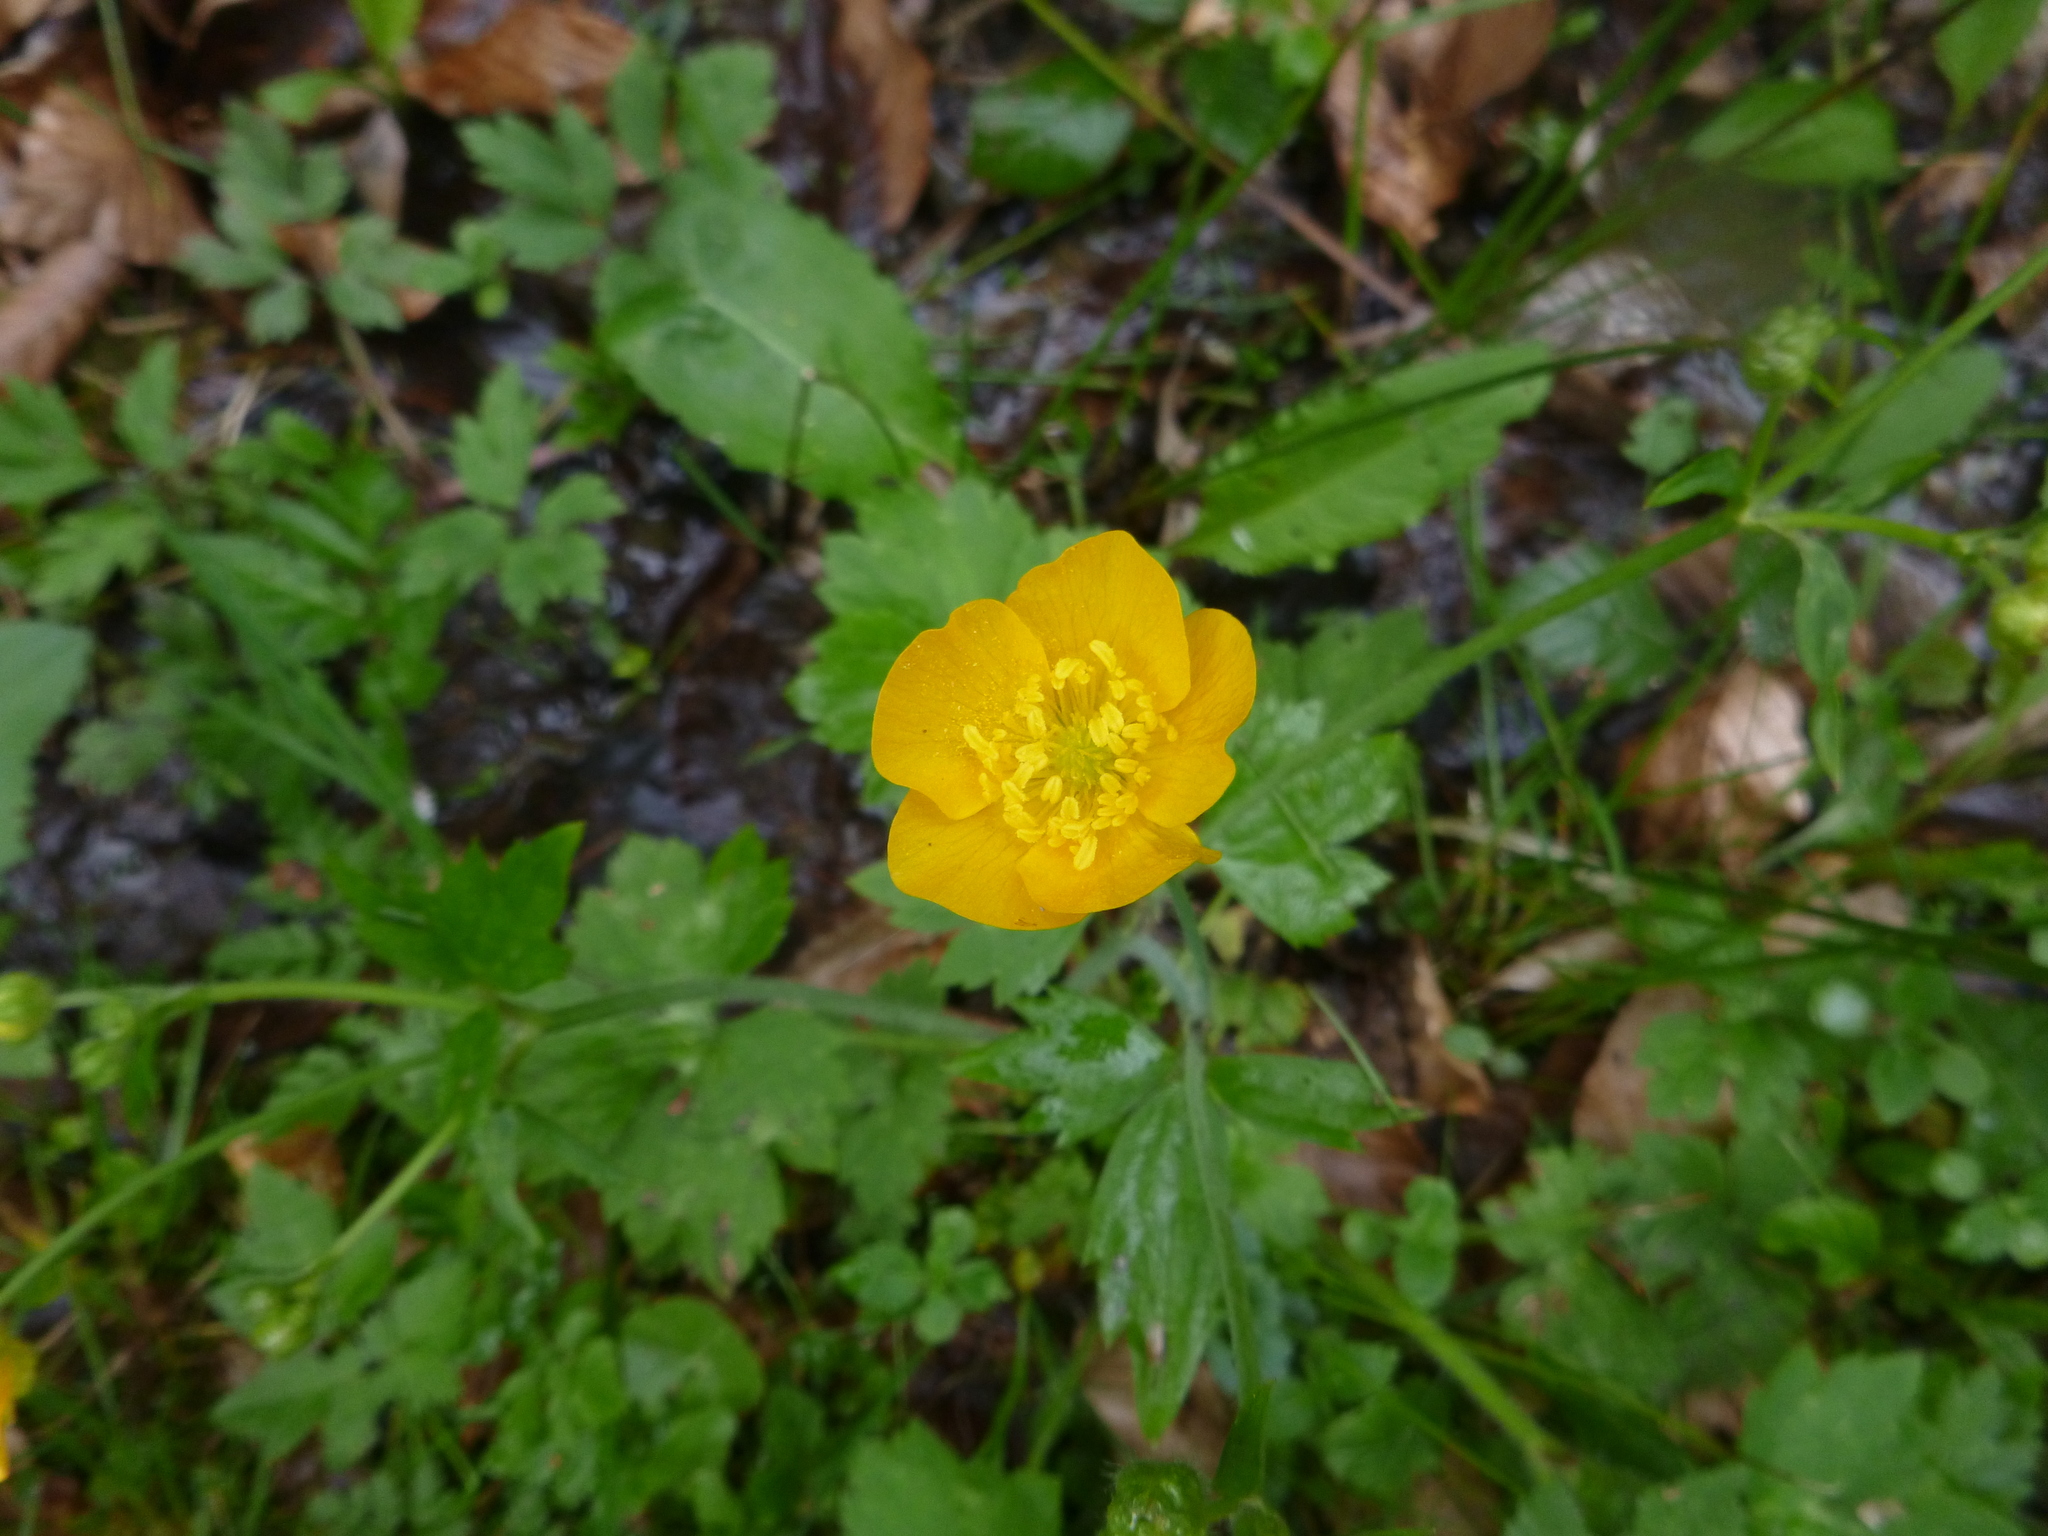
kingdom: Plantae
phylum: Tracheophyta
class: Magnoliopsida
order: Ranunculales
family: Ranunculaceae
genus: Ranunculus
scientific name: Ranunculus lanuginosus
